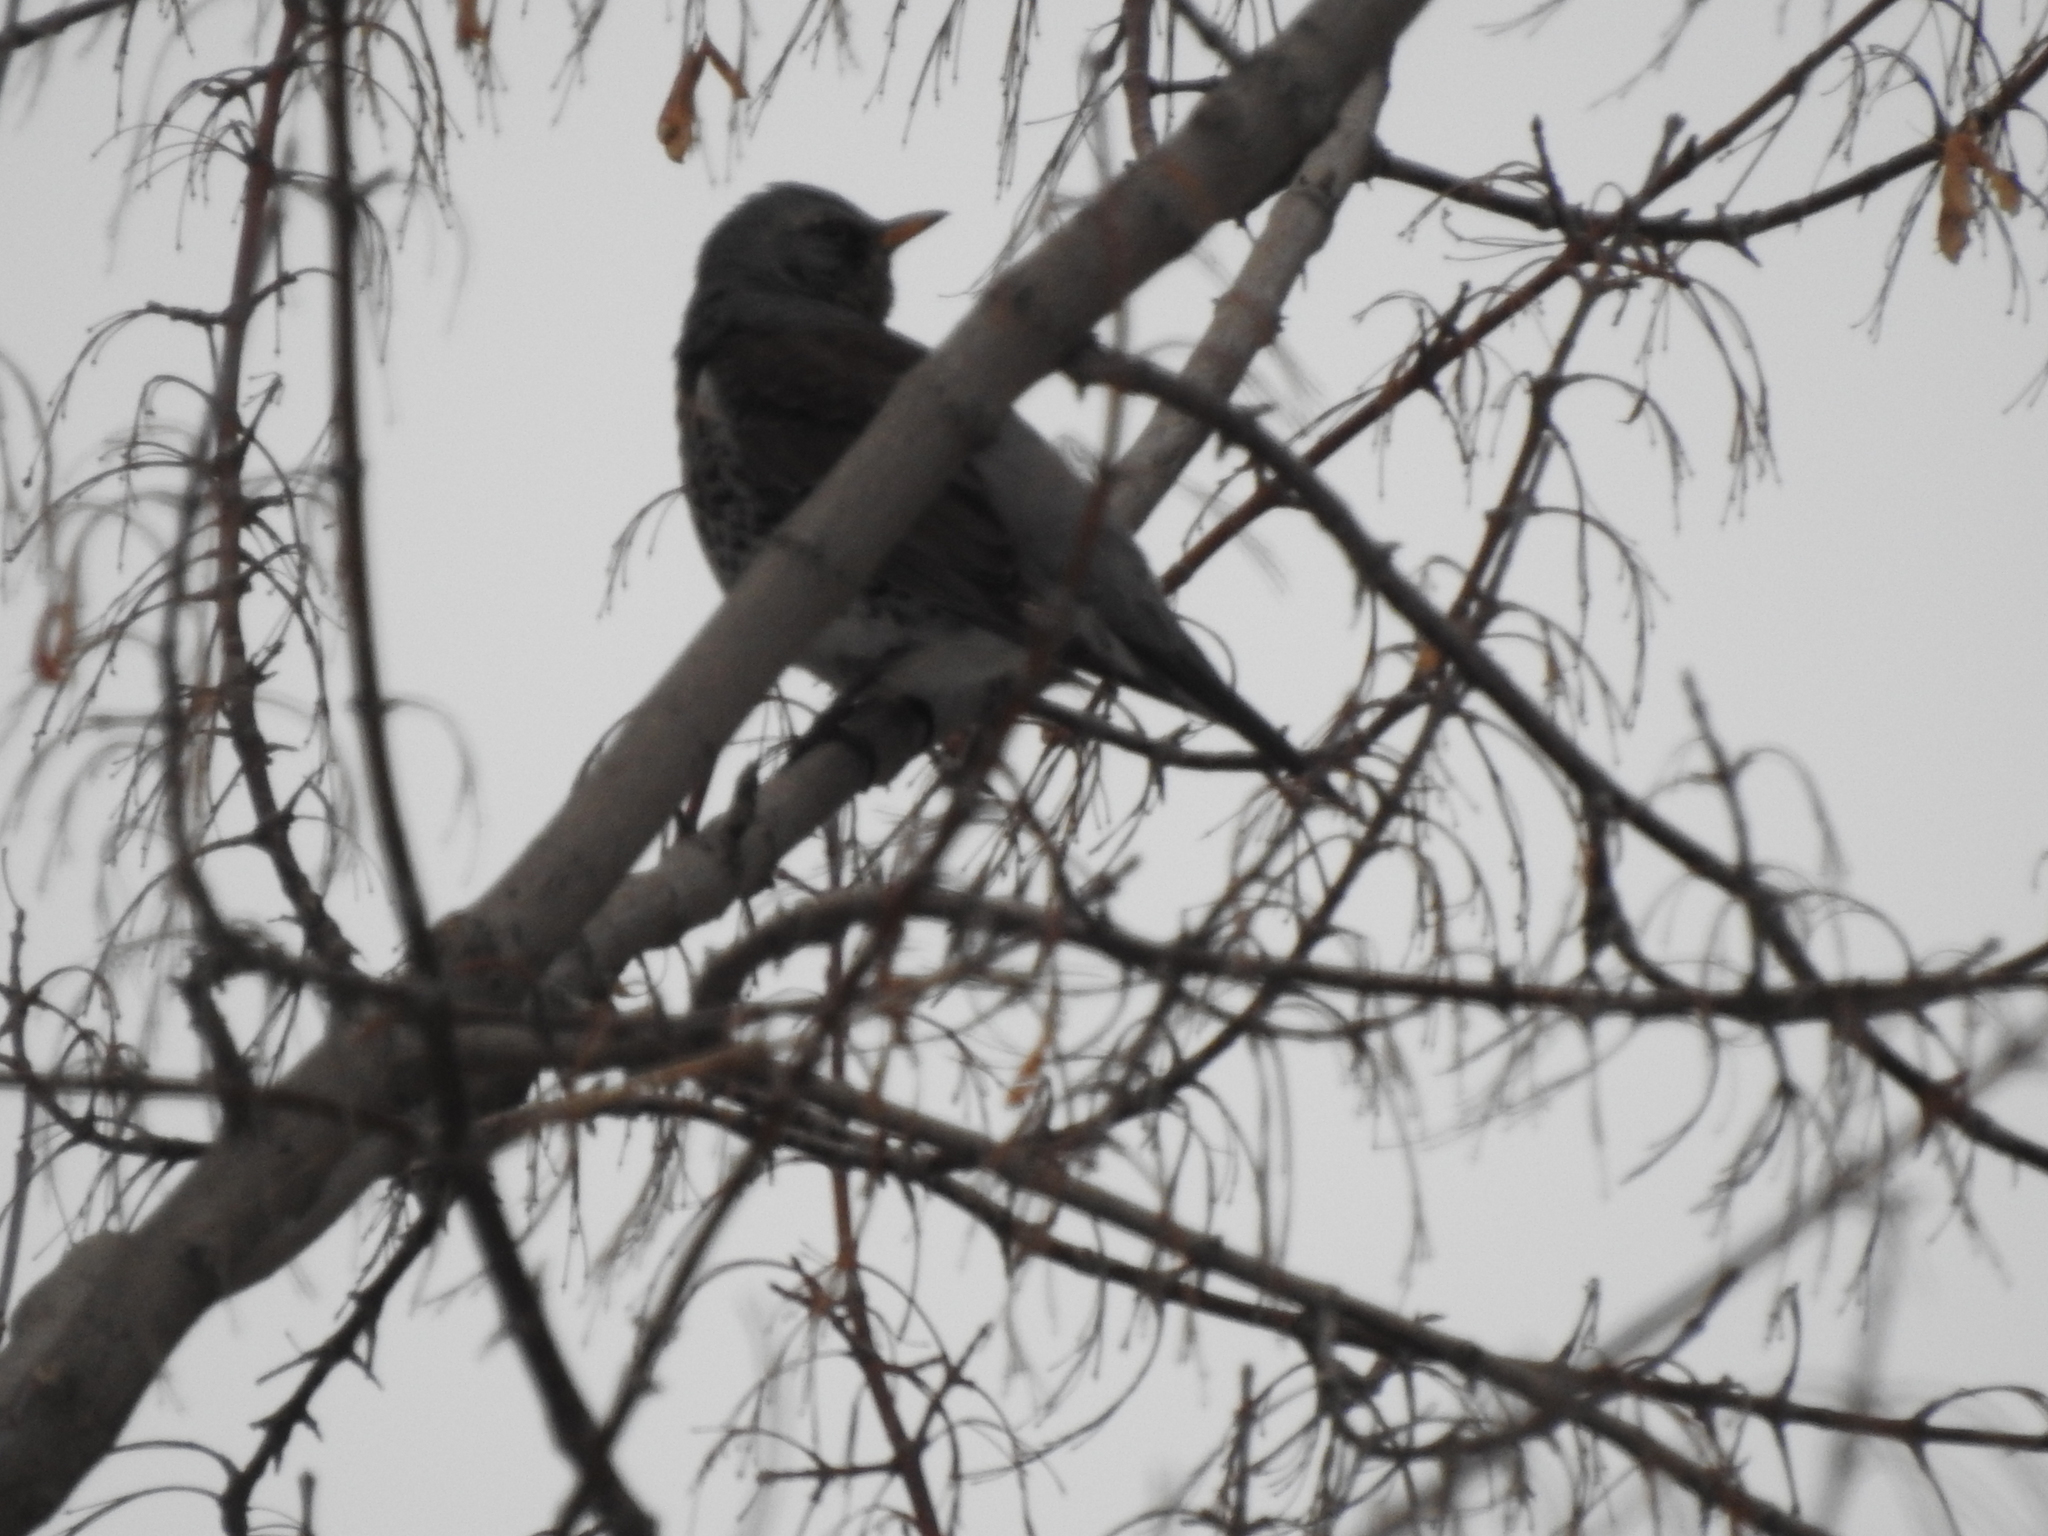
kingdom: Animalia
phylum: Chordata
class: Aves
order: Passeriformes
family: Turdidae
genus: Turdus
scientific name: Turdus pilaris
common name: Fieldfare
